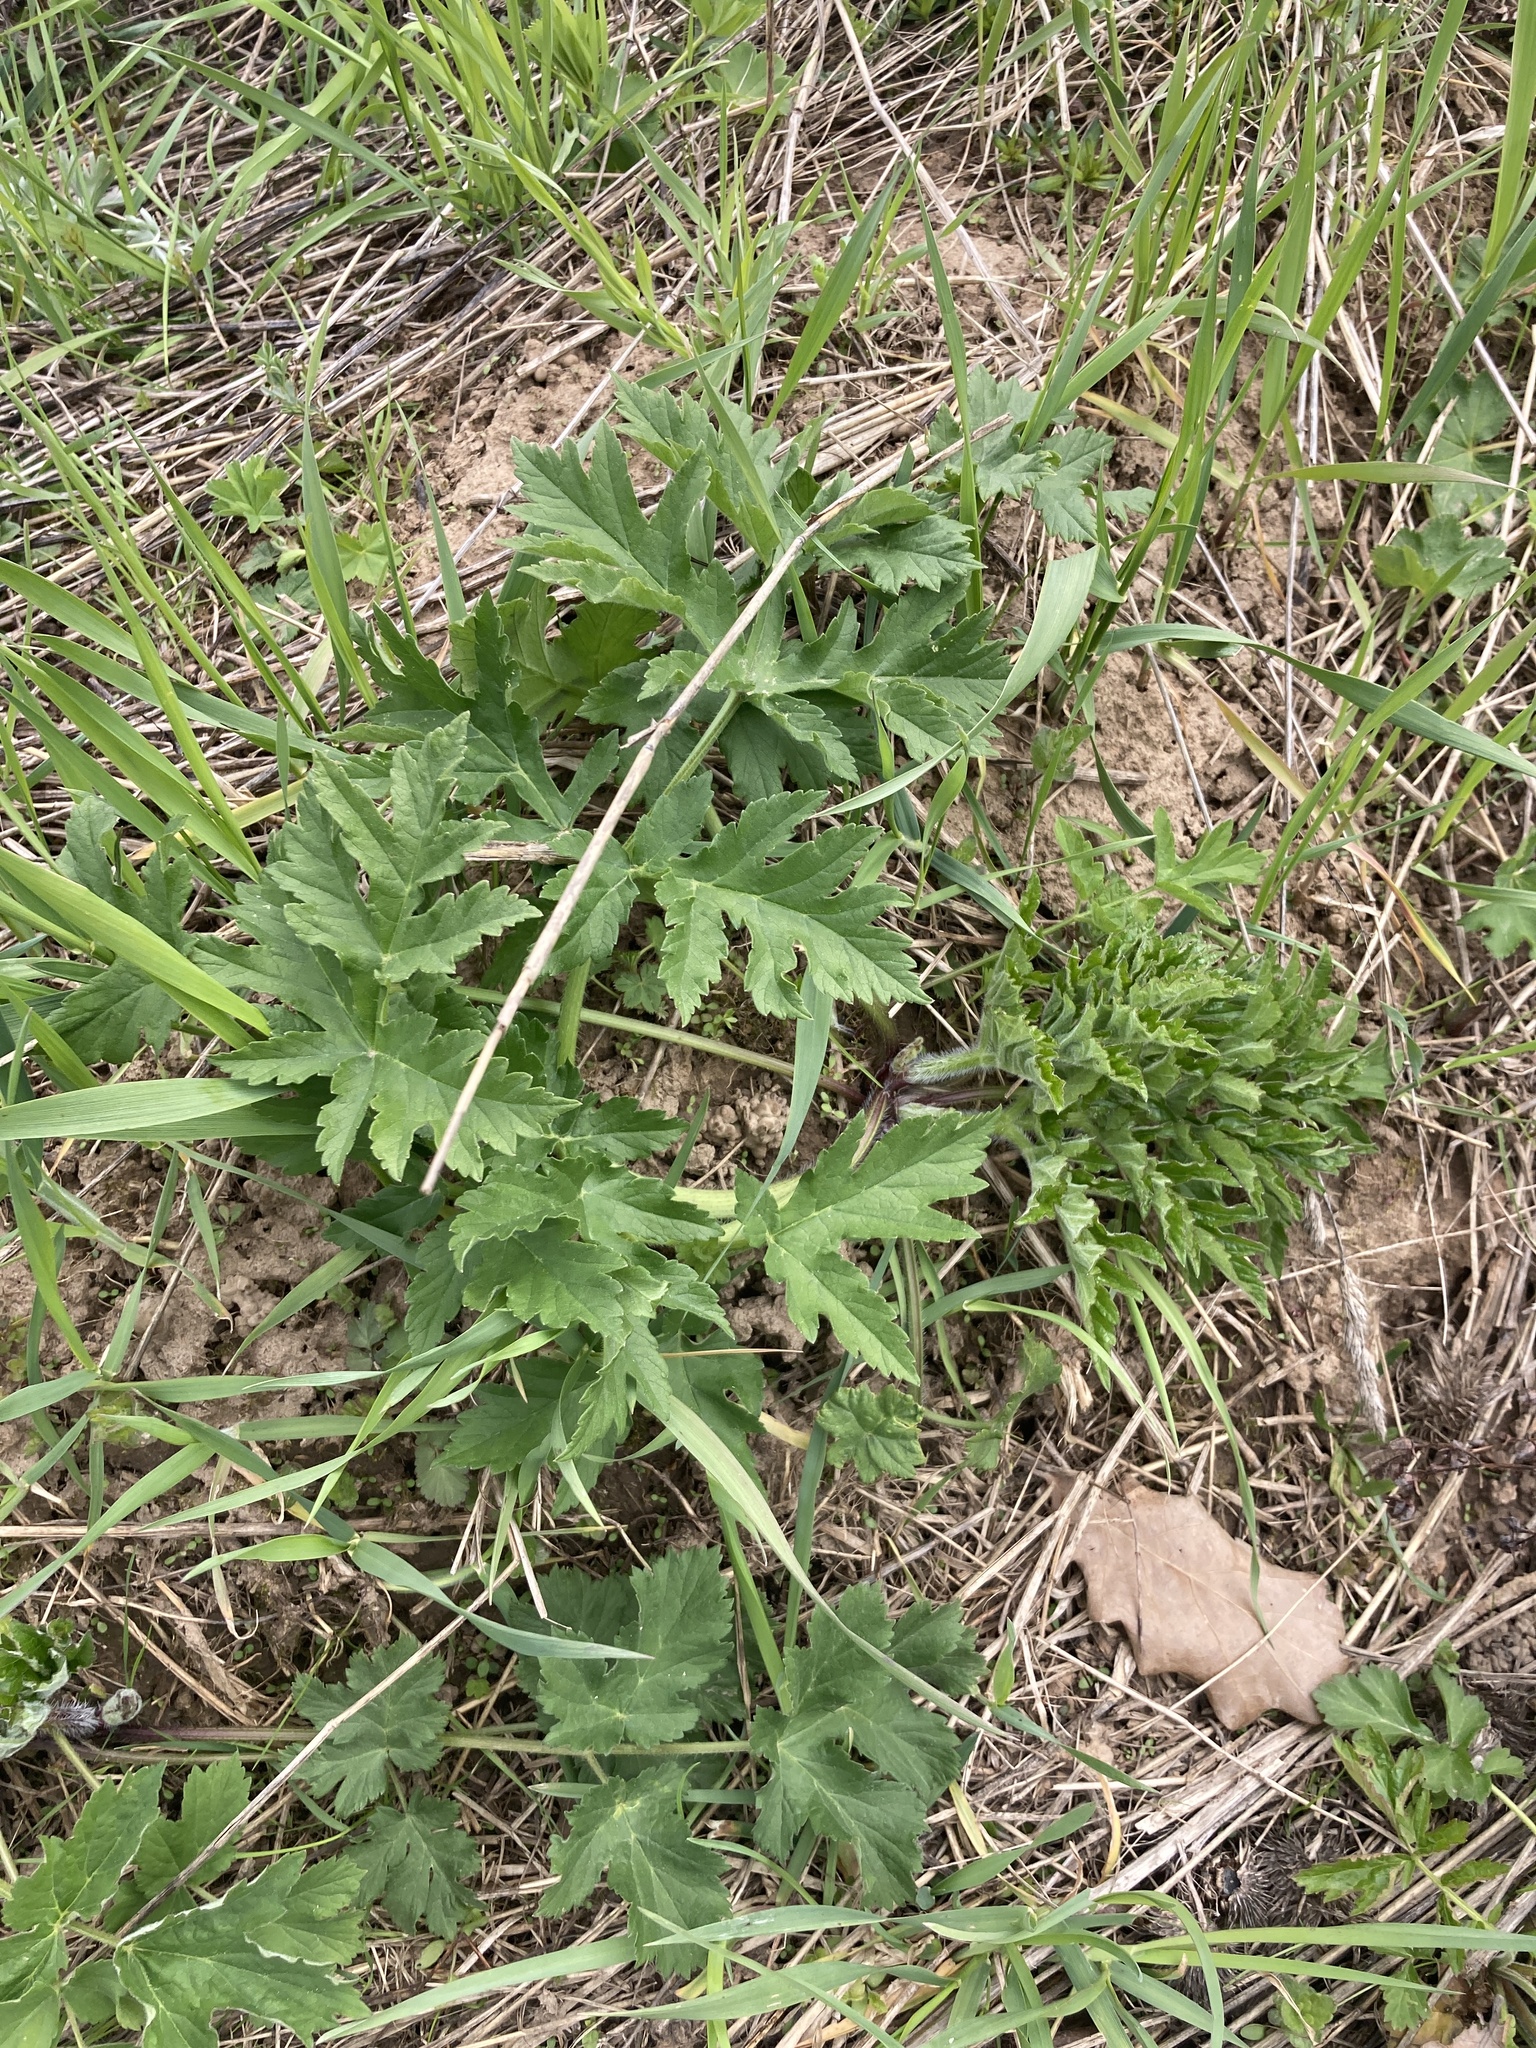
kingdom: Plantae
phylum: Tracheophyta
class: Magnoliopsida
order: Apiales
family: Apiaceae
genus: Heracleum
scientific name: Heracleum sphondylium
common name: Hogweed
